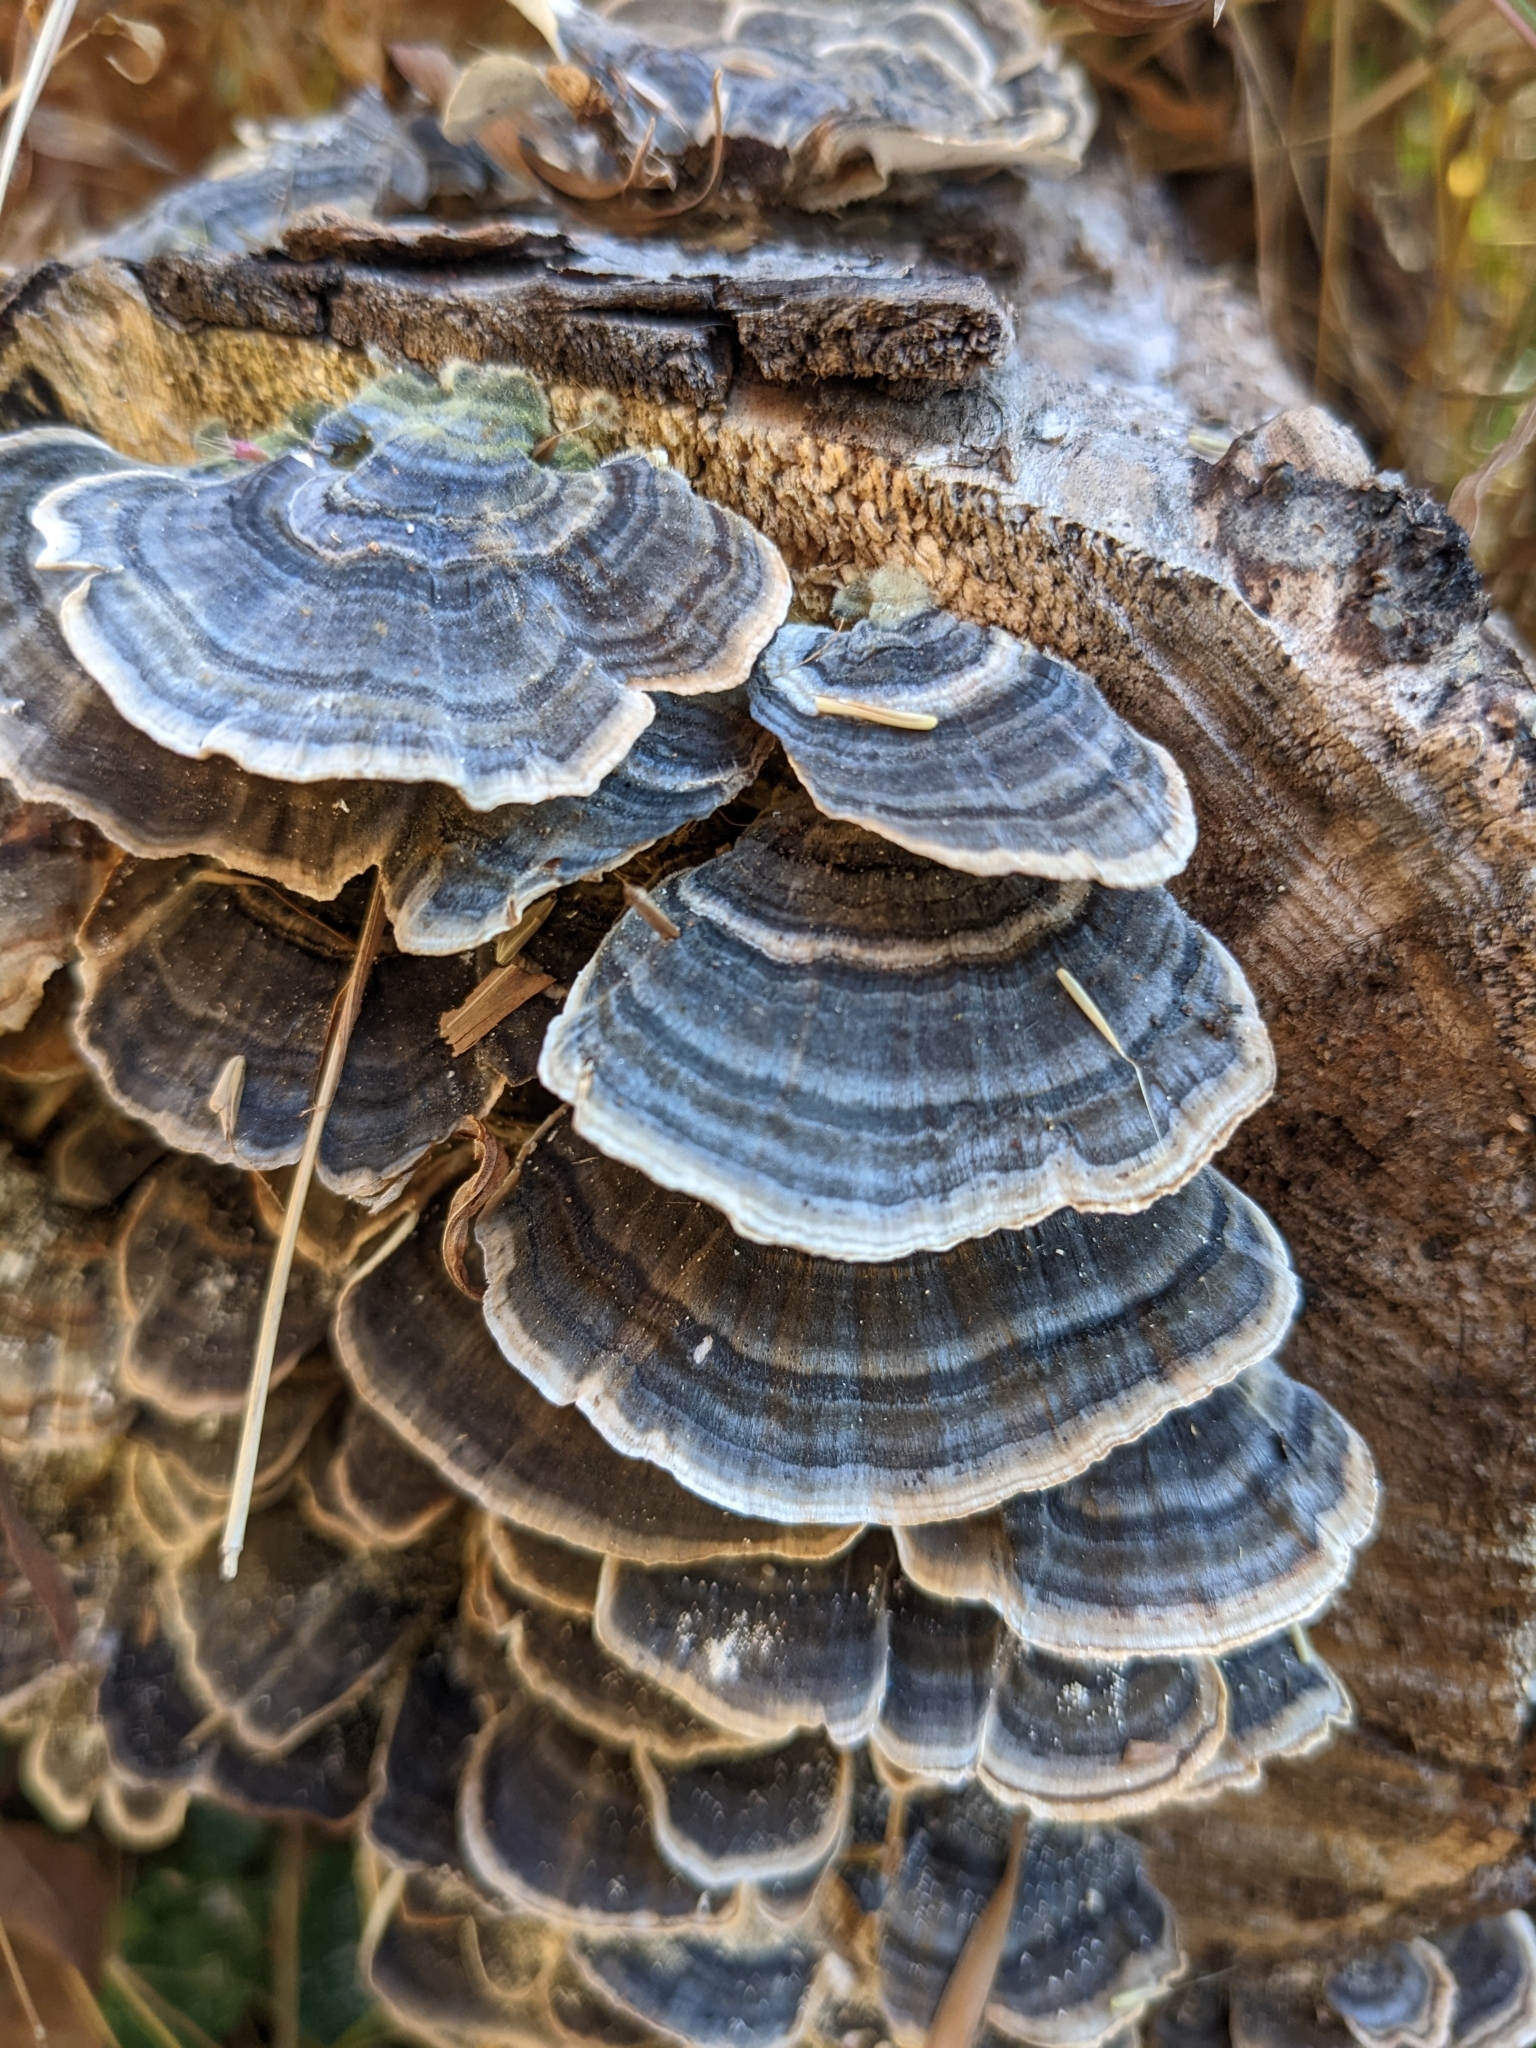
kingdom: Fungi
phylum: Basidiomycota
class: Agaricomycetes
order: Polyporales
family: Polyporaceae
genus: Trametes
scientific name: Trametes versicolor
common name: Turkeytail
